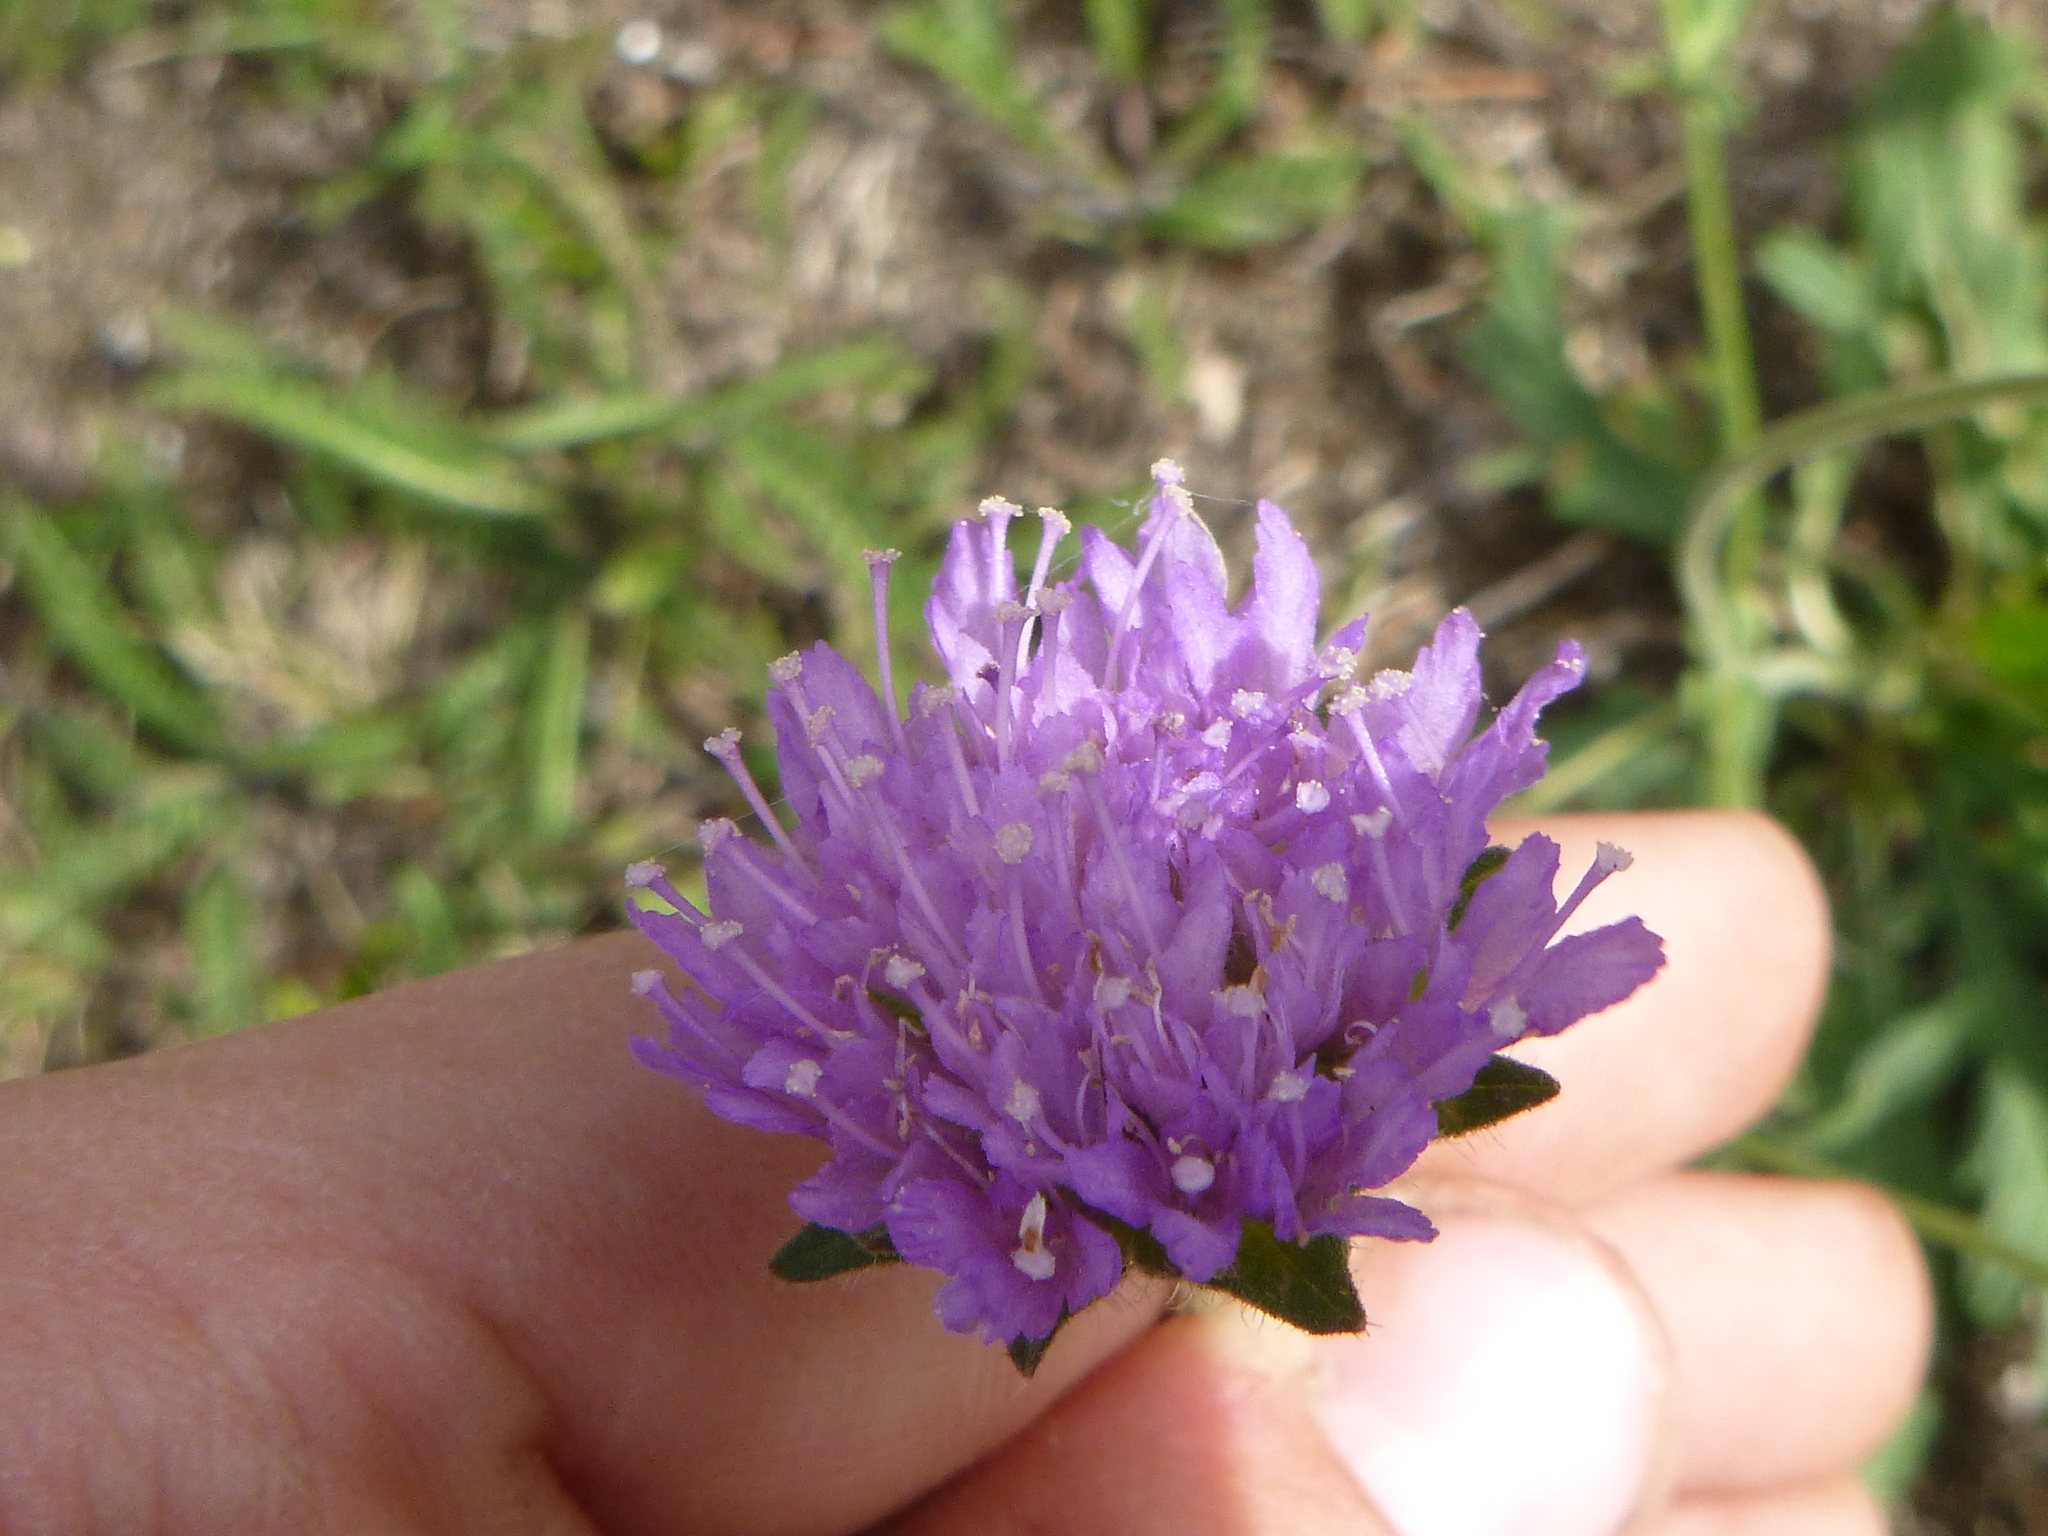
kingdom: Plantae
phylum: Tracheophyta
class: Magnoliopsida
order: Dipsacales
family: Caprifoliaceae
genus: Succisa
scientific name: Succisa pratensis
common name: Devil's-bit
